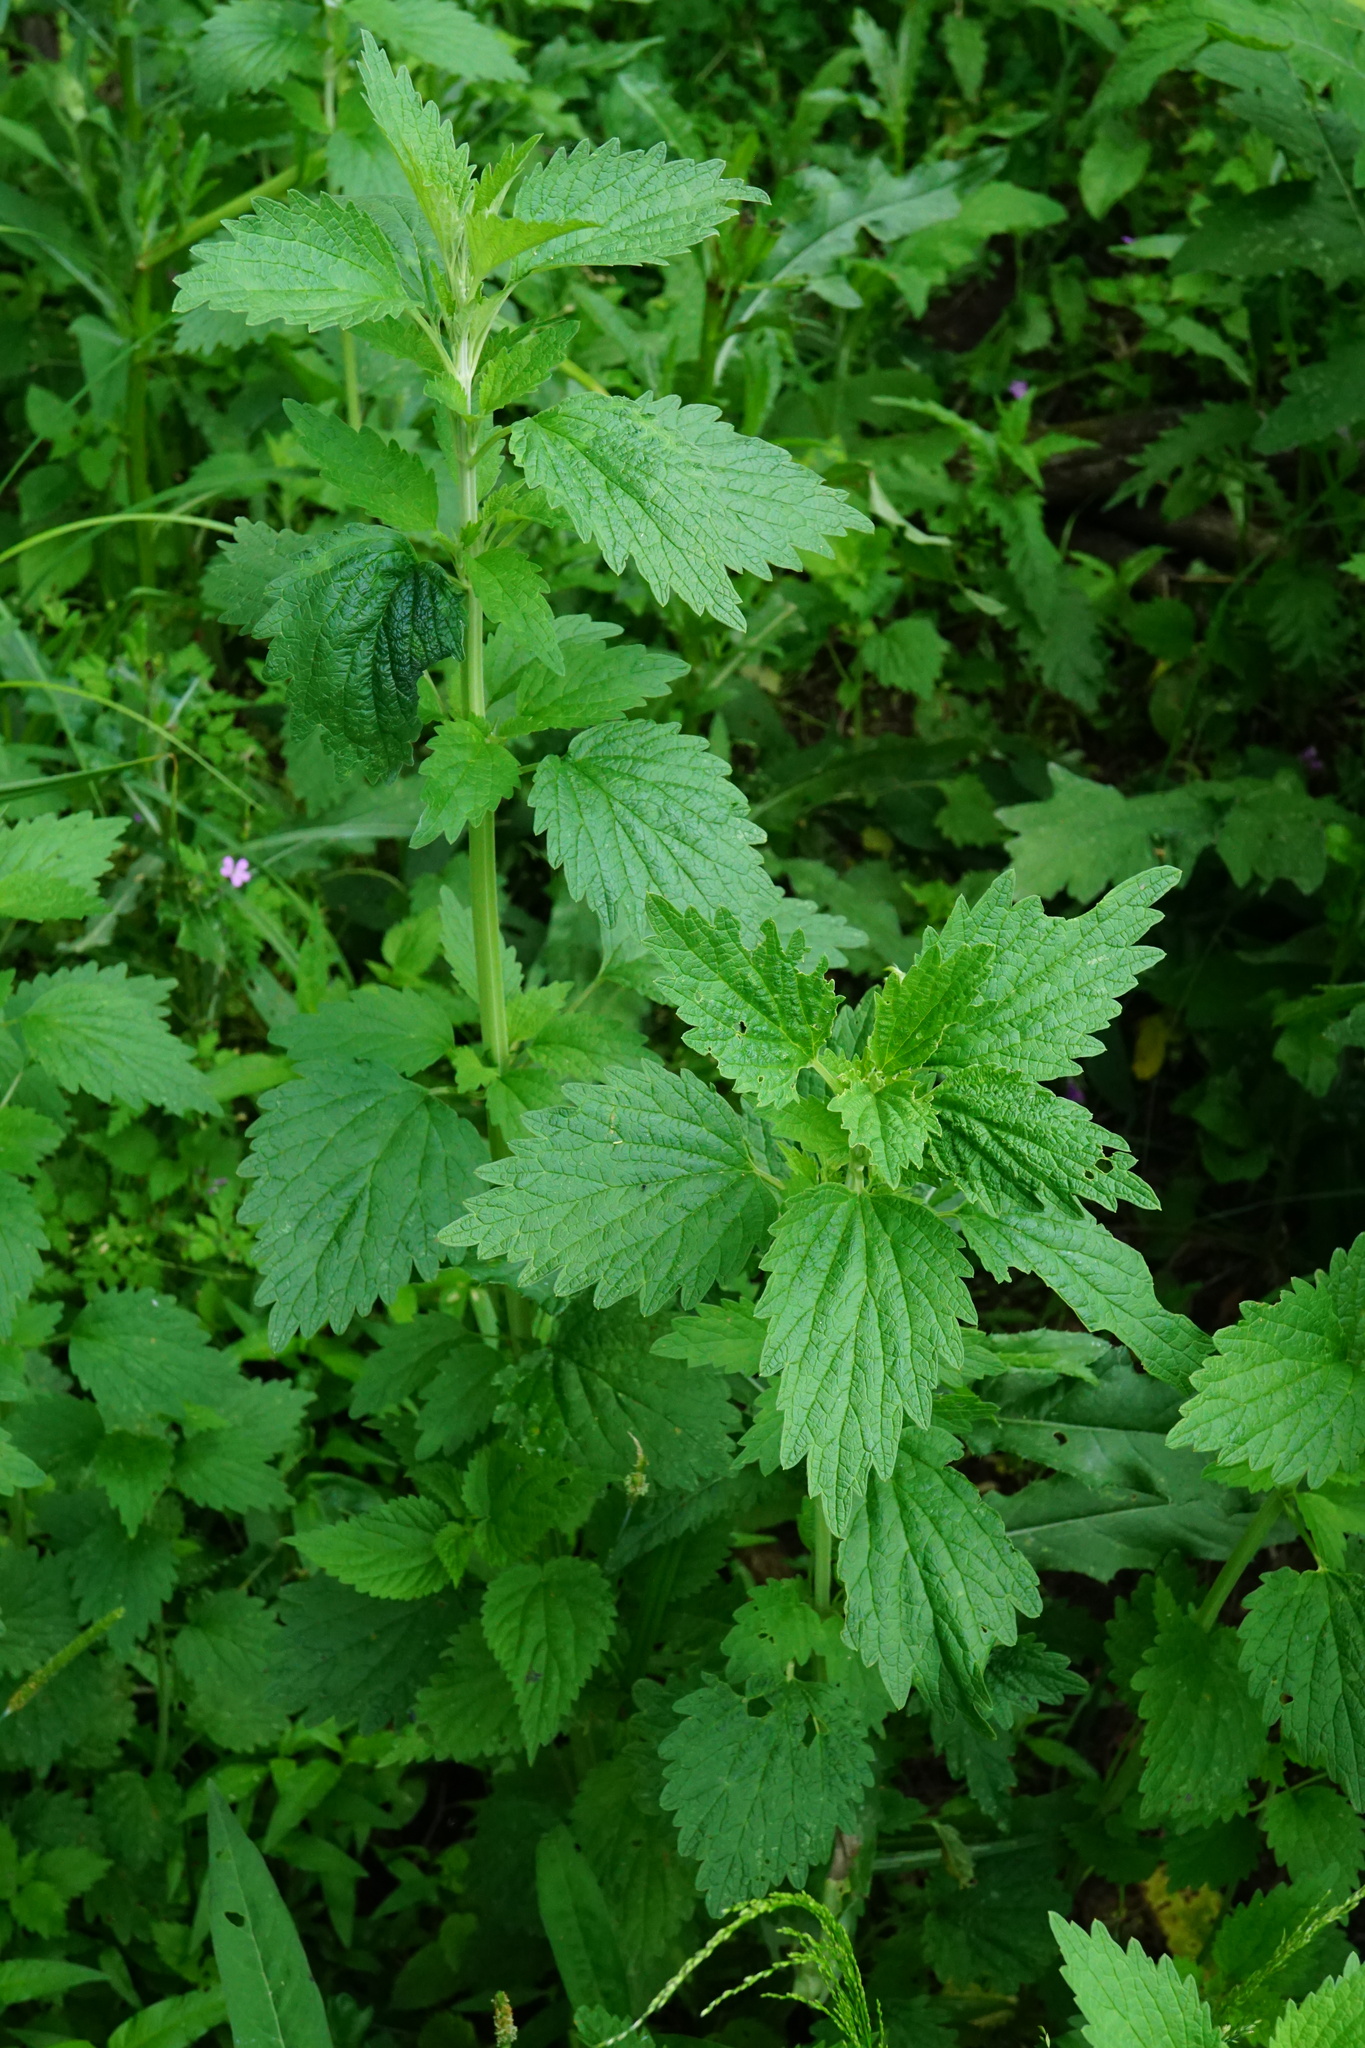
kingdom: Plantae
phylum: Tracheophyta
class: Magnoliopsida
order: Lamiales
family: Lamiaceae
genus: Chaiturus
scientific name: Chaiturus marrubiastrum
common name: Lion's tail
